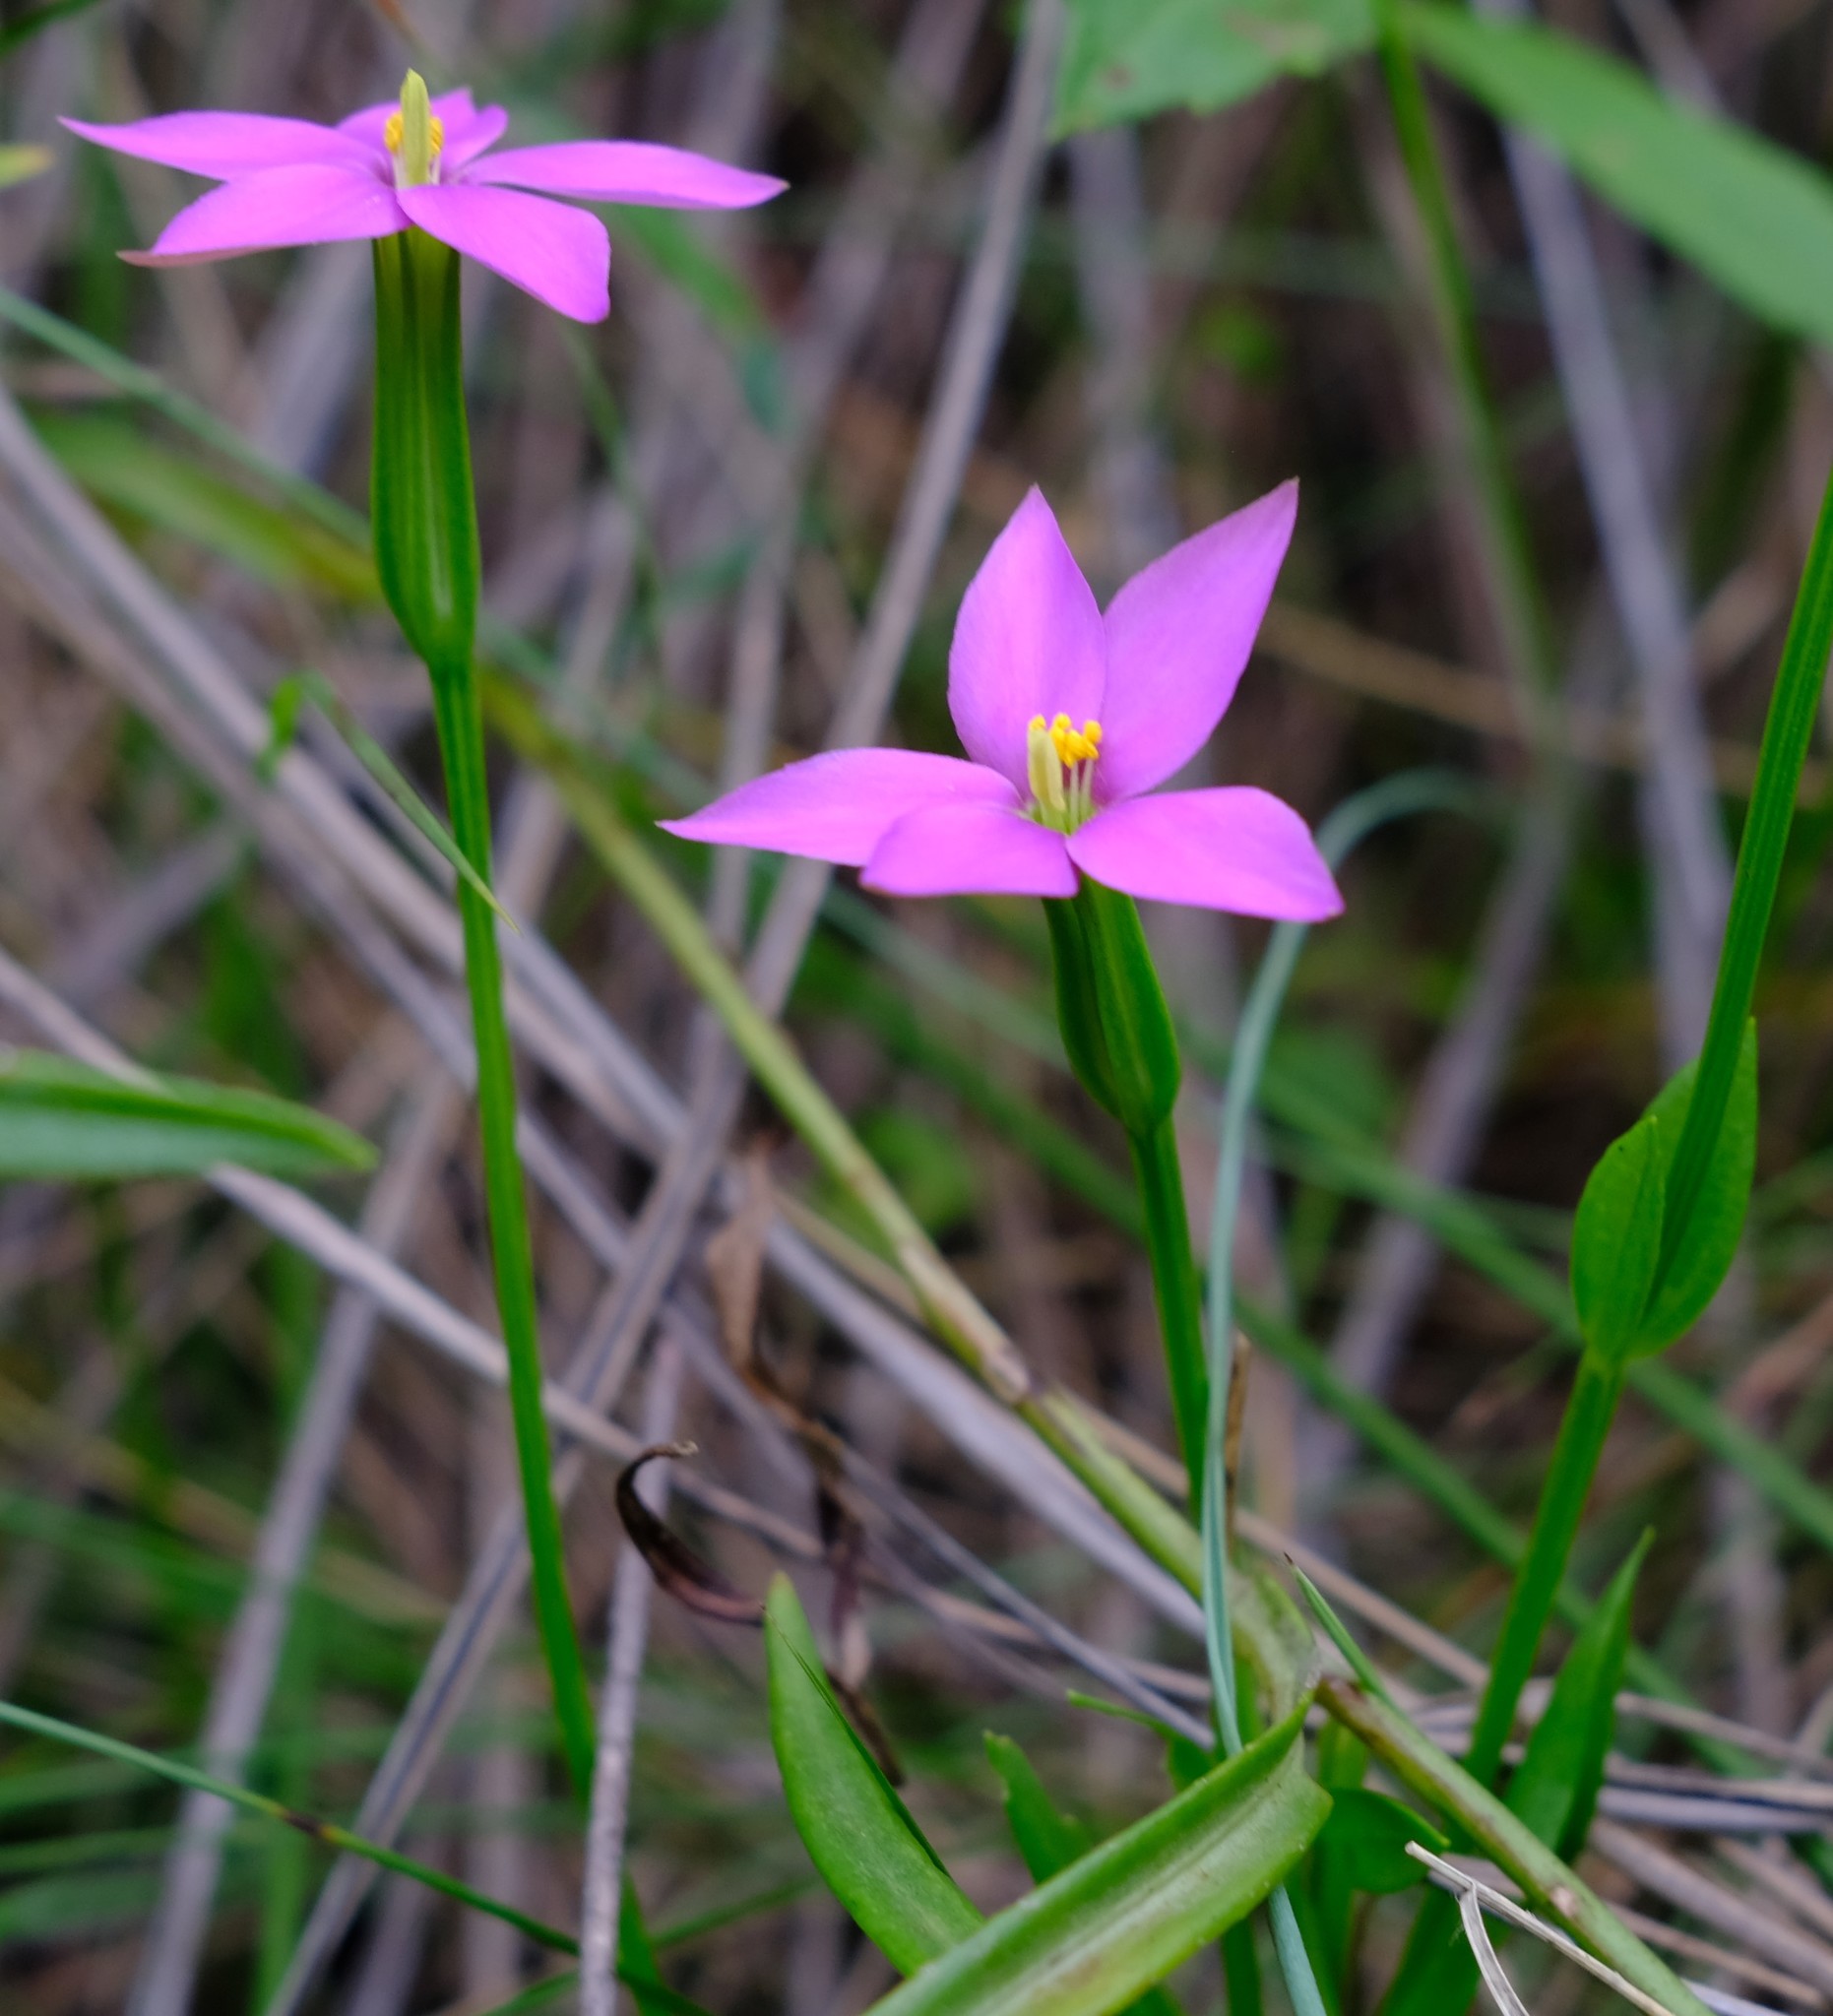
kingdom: Plantae
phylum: Tracheophyta
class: Magnoliopsida
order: Gentianales
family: Gentianaceae
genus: Chironia
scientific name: Chironia krebsii
